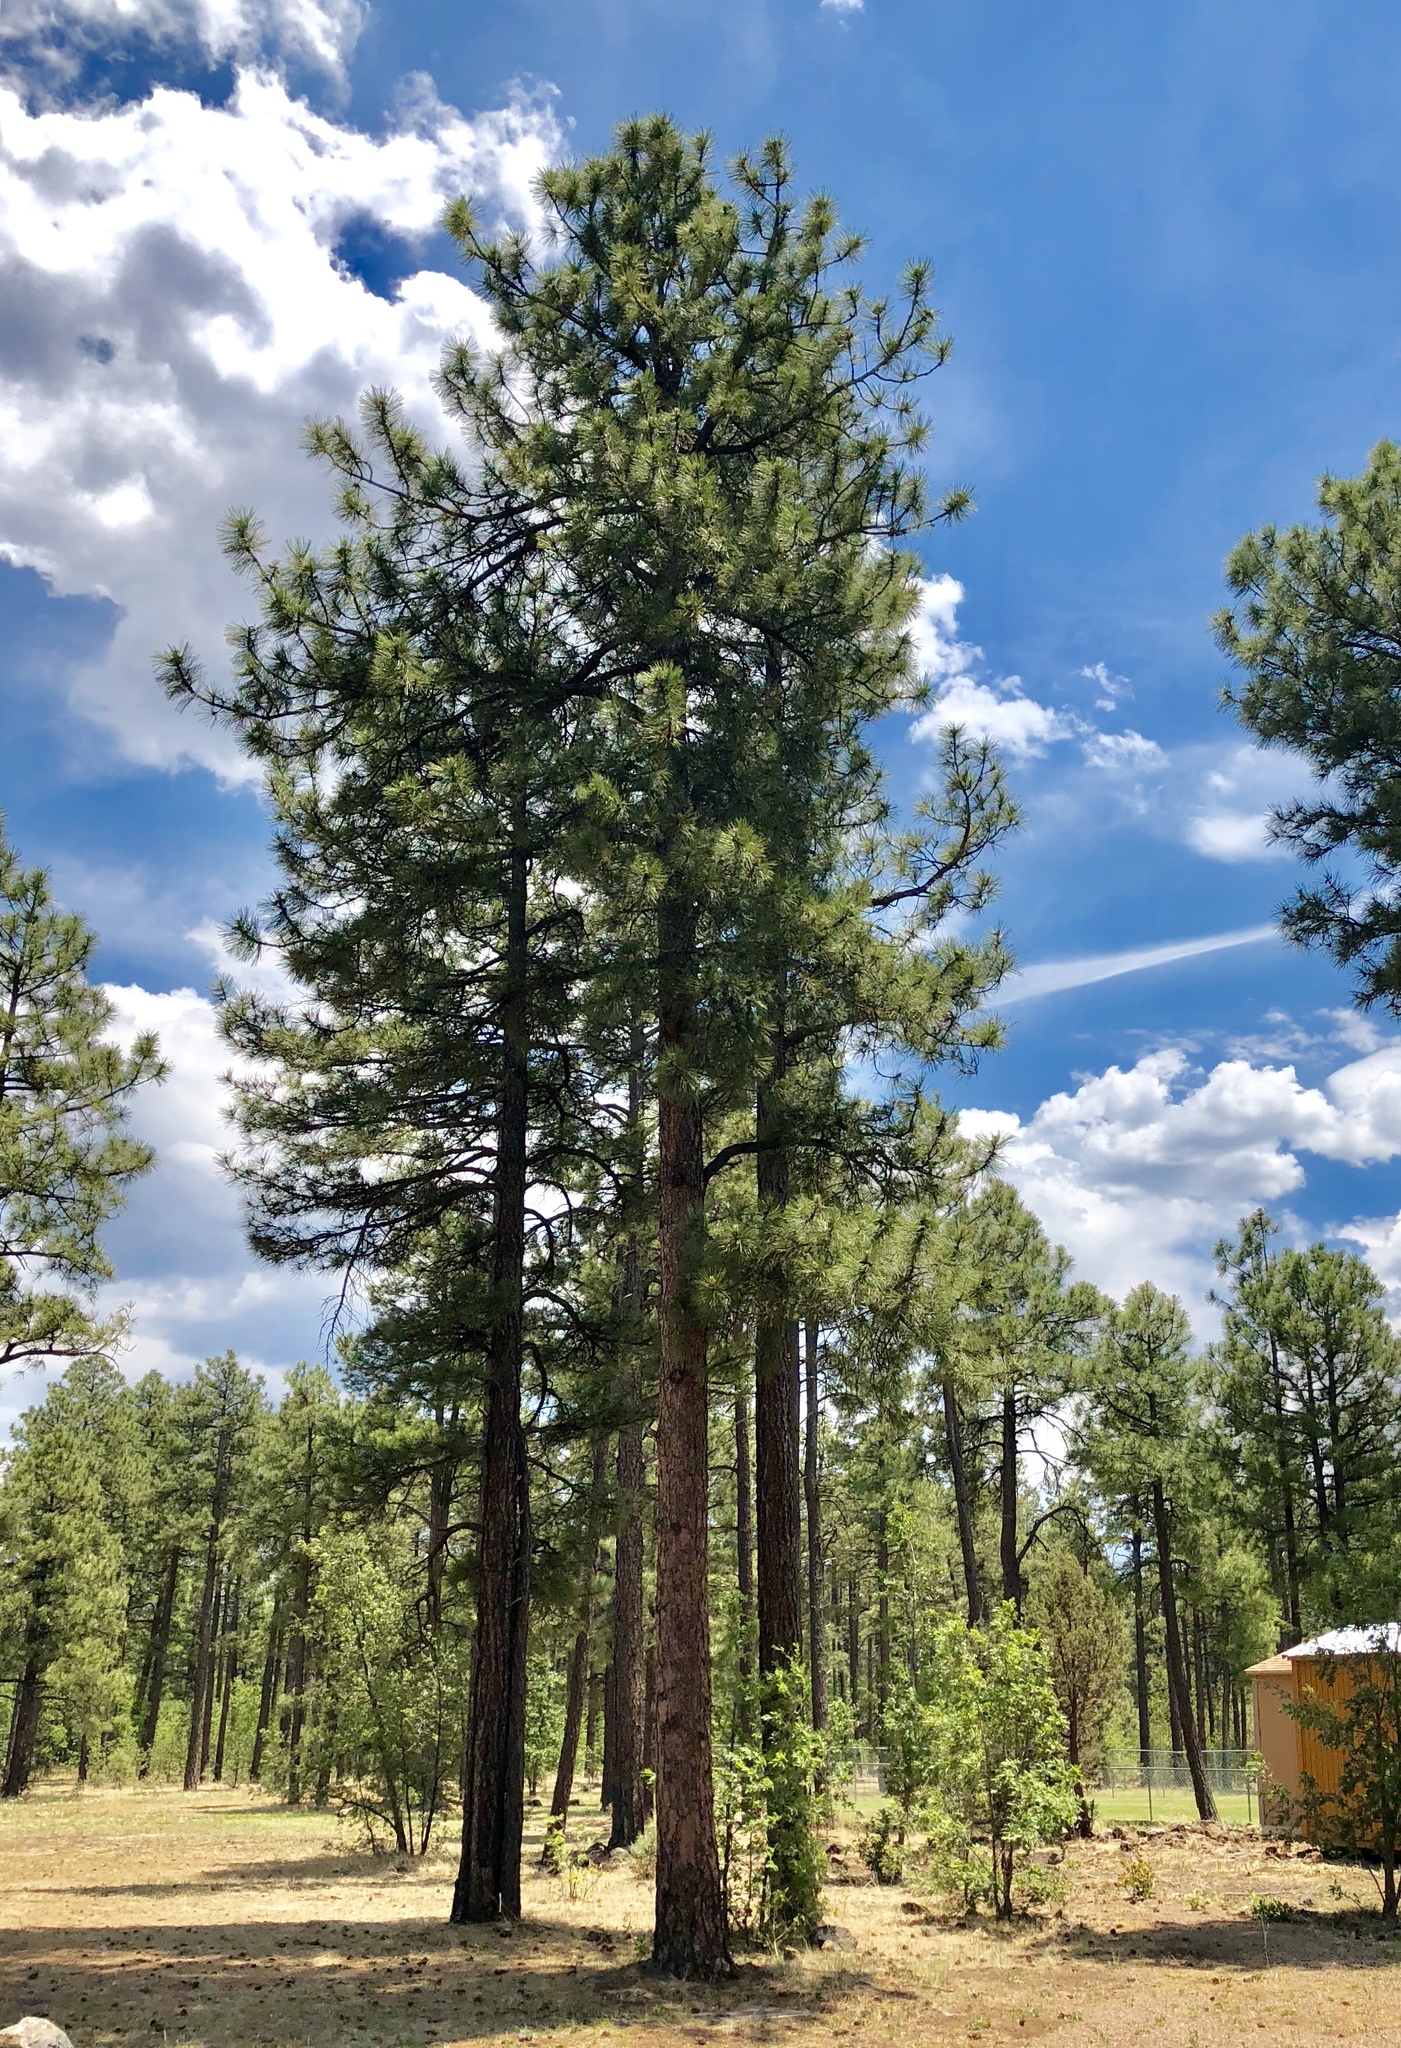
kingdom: Plantae
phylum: Tracheophyta
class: Pinopsida
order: Pinales
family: Pinaceae
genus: Pinus
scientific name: Pinus ponderosa
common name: Western yellow-pine
